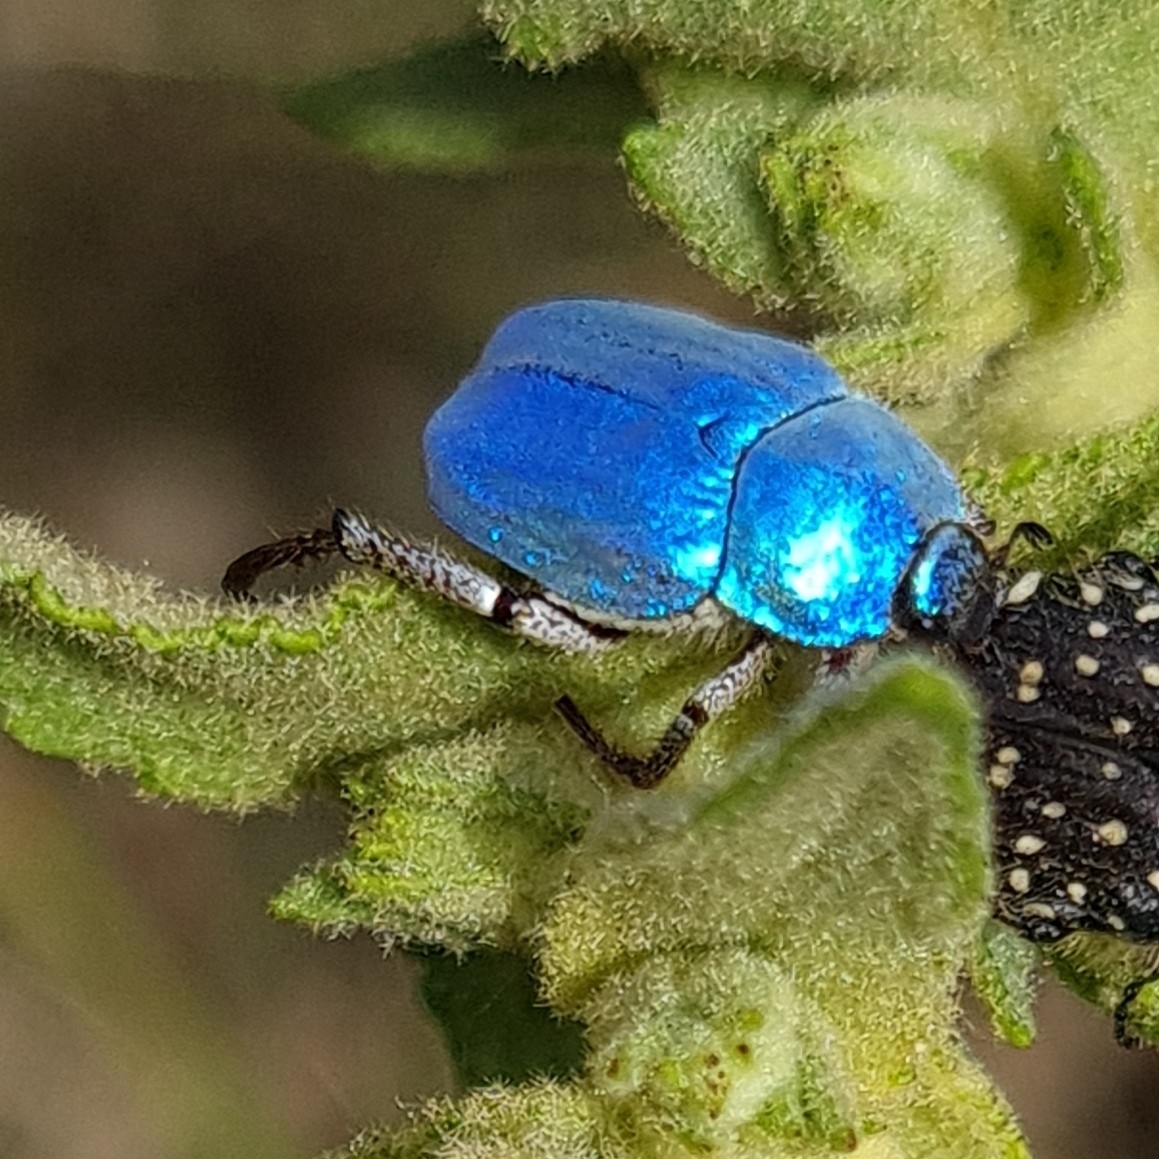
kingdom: Animalia
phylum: Arthropoda
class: Insecta
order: Coleoptera
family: Scarabaeidae
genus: Hoplia
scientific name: Hoplia coerulea
